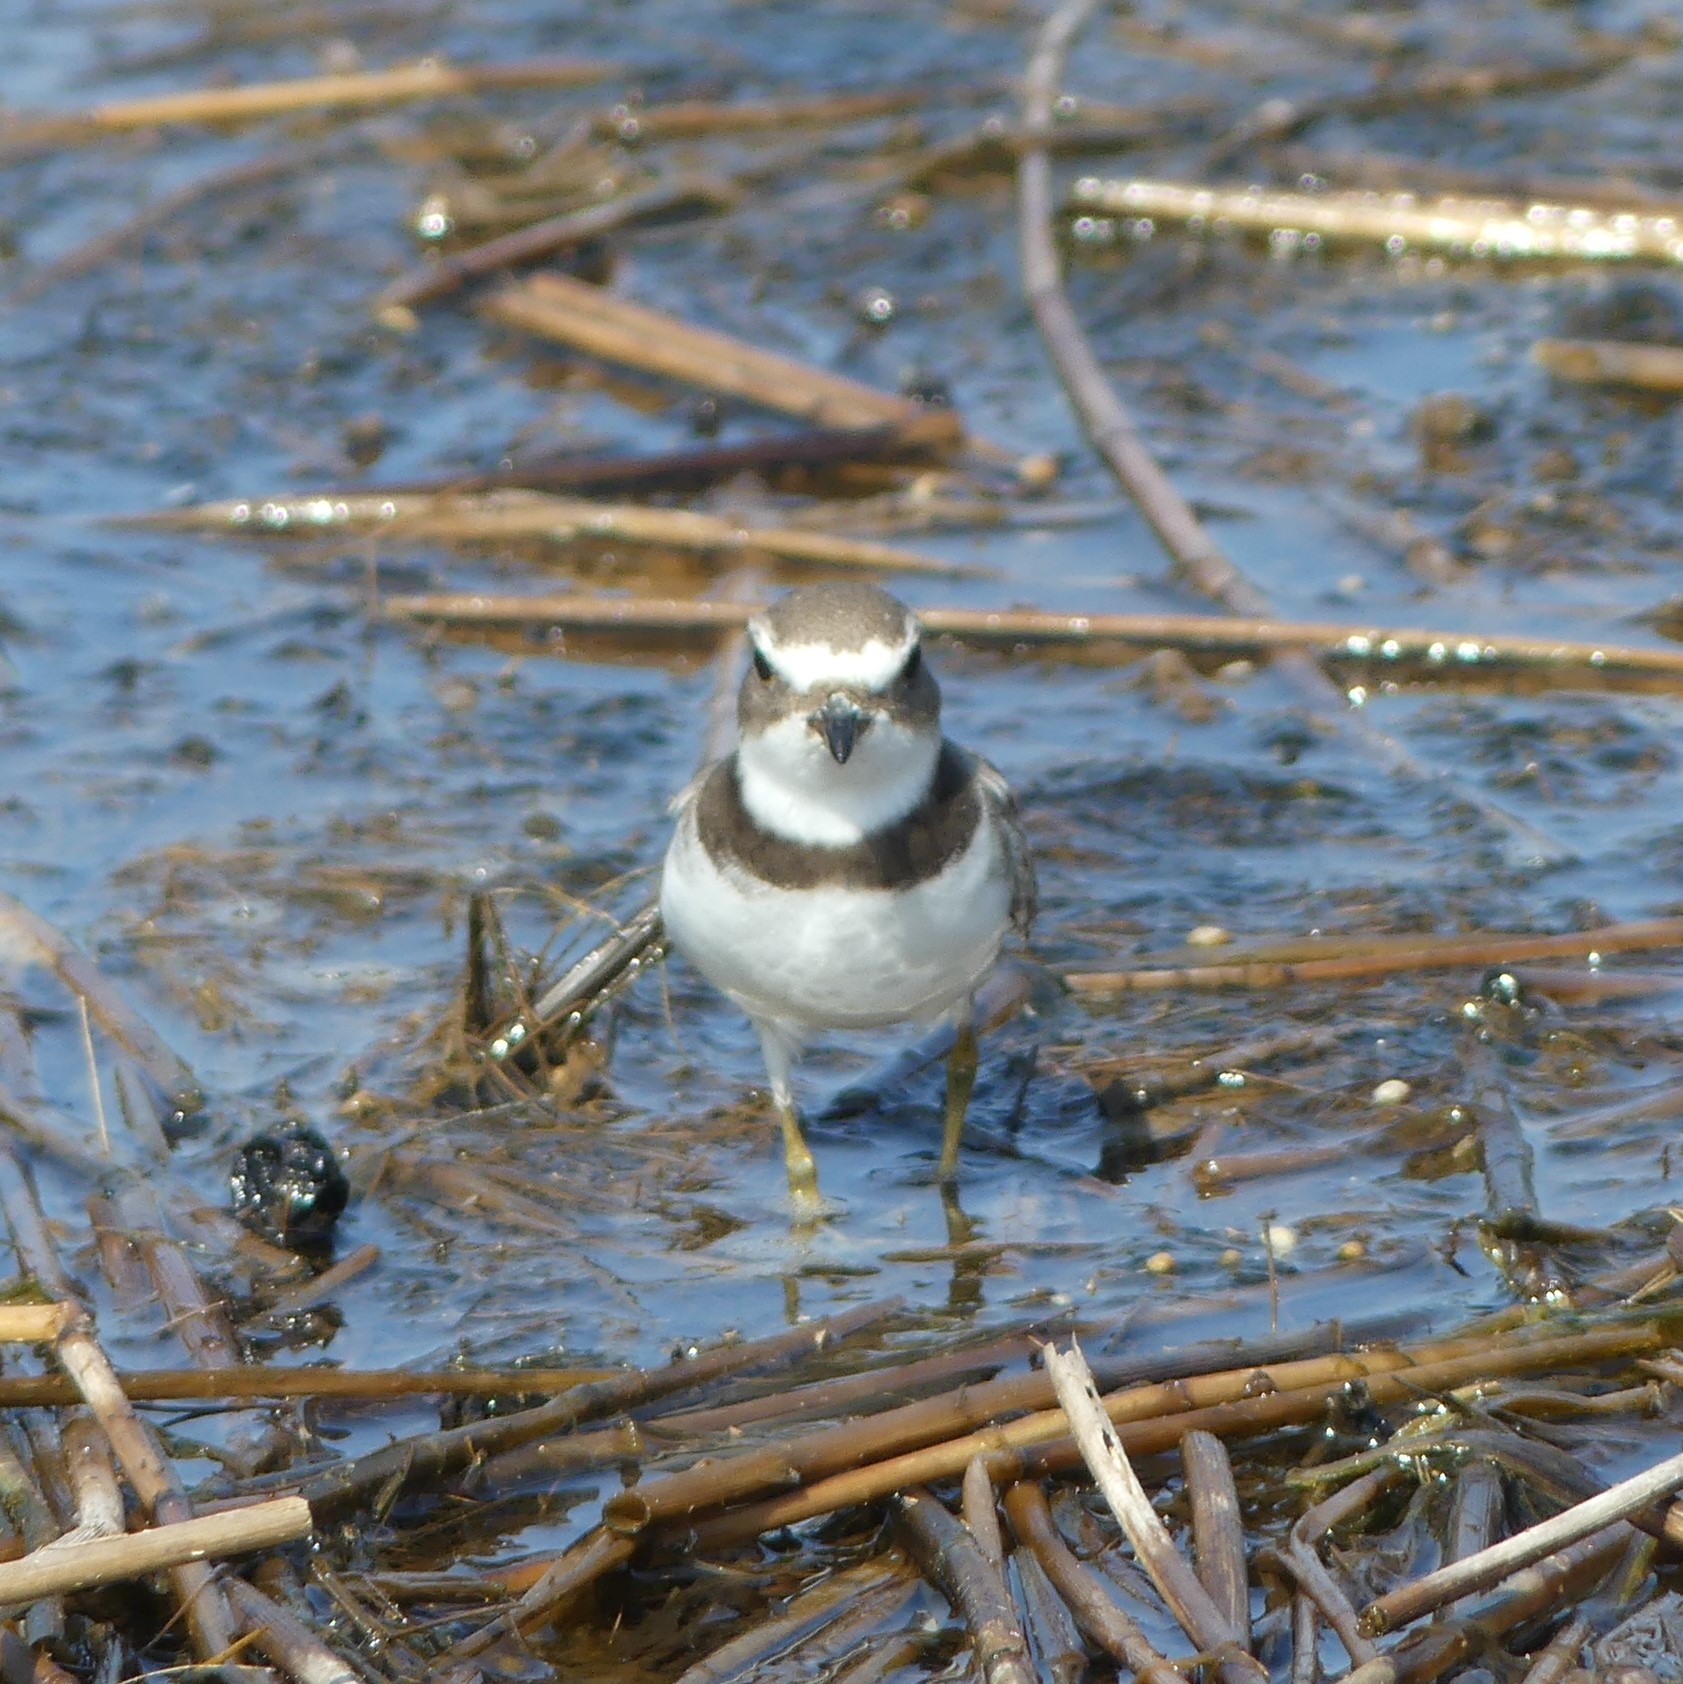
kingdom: Animalia
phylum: Chordata
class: Aves
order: Charadriiformes
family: Charadriidae
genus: Charadrius
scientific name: Charadrius semipalmatus
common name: Semipalmated plover
